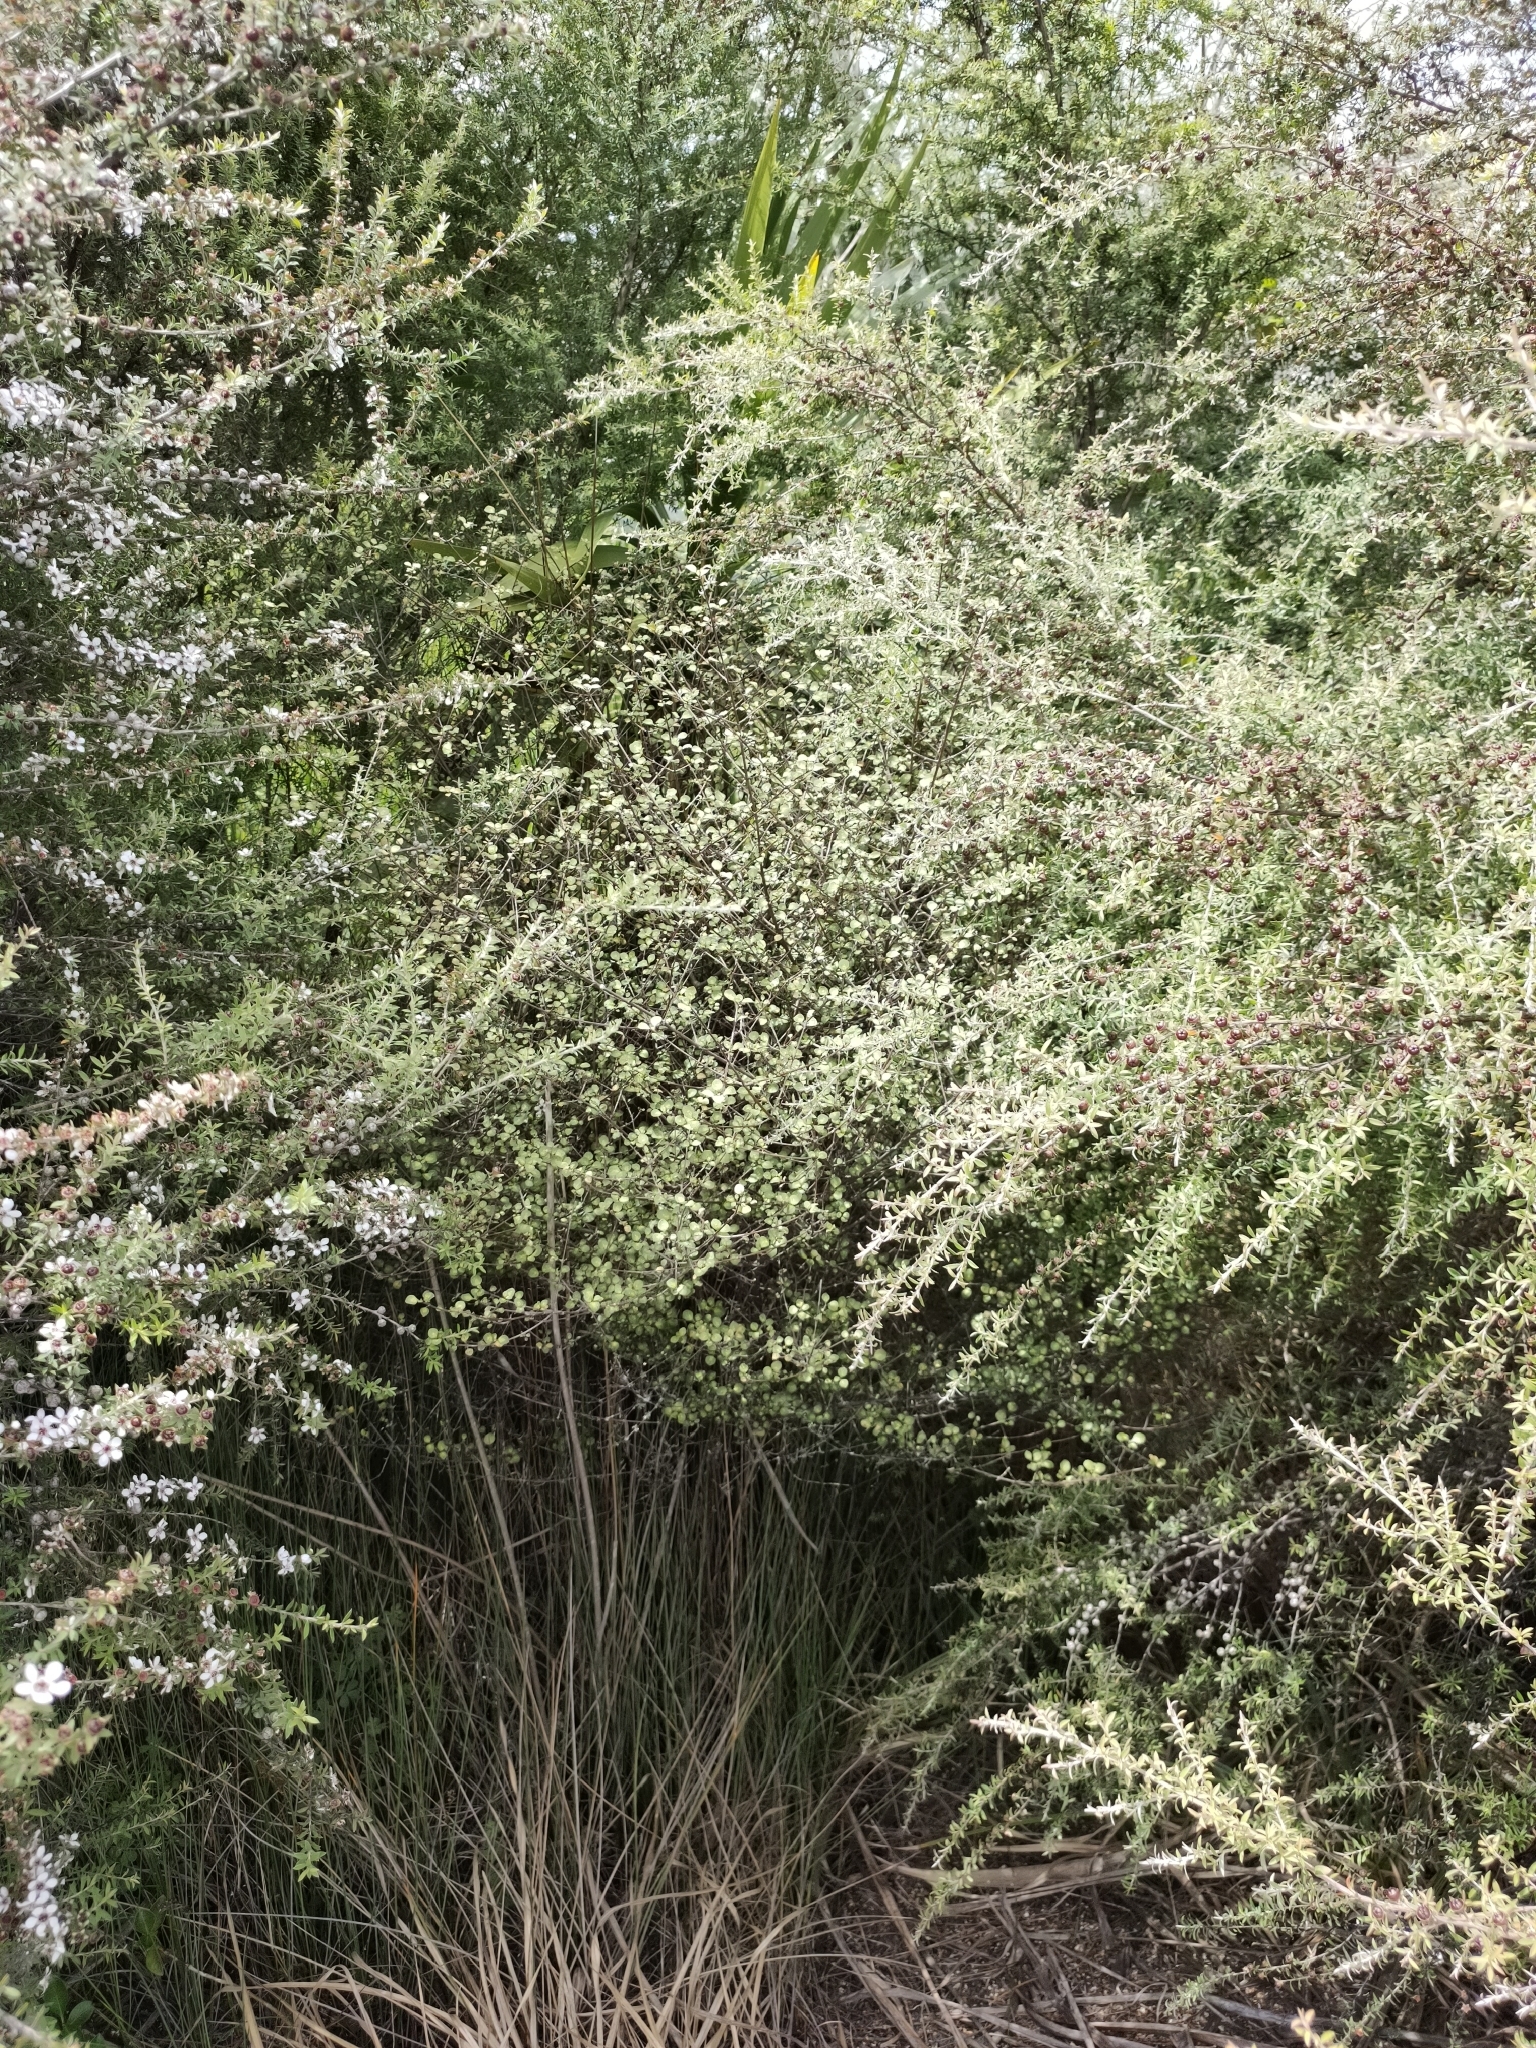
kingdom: Plantae
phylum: Tracheophyta
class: Magnoliopsida
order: Gentianales
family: Rubiaceae
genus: Coprosma
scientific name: Coprosma tenuicaulis
